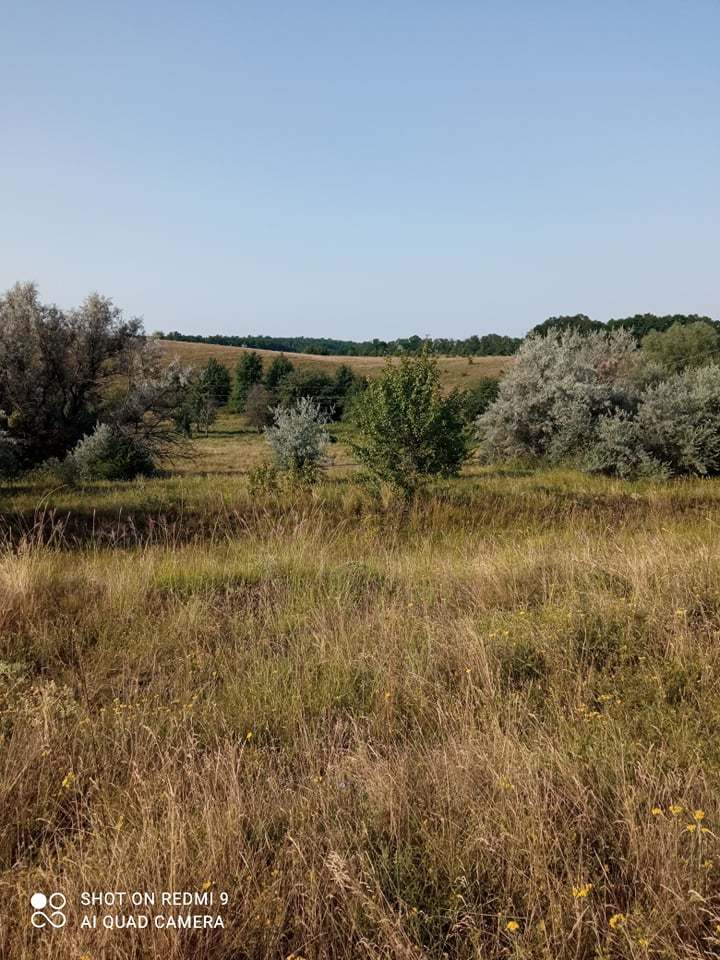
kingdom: Plantae
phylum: Tracheophyta
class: Magnoliopsida
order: Rosales
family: Elaeagnaceae
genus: Elaeagnus
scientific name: Elaeagnus angustifolia
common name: Russian olive
